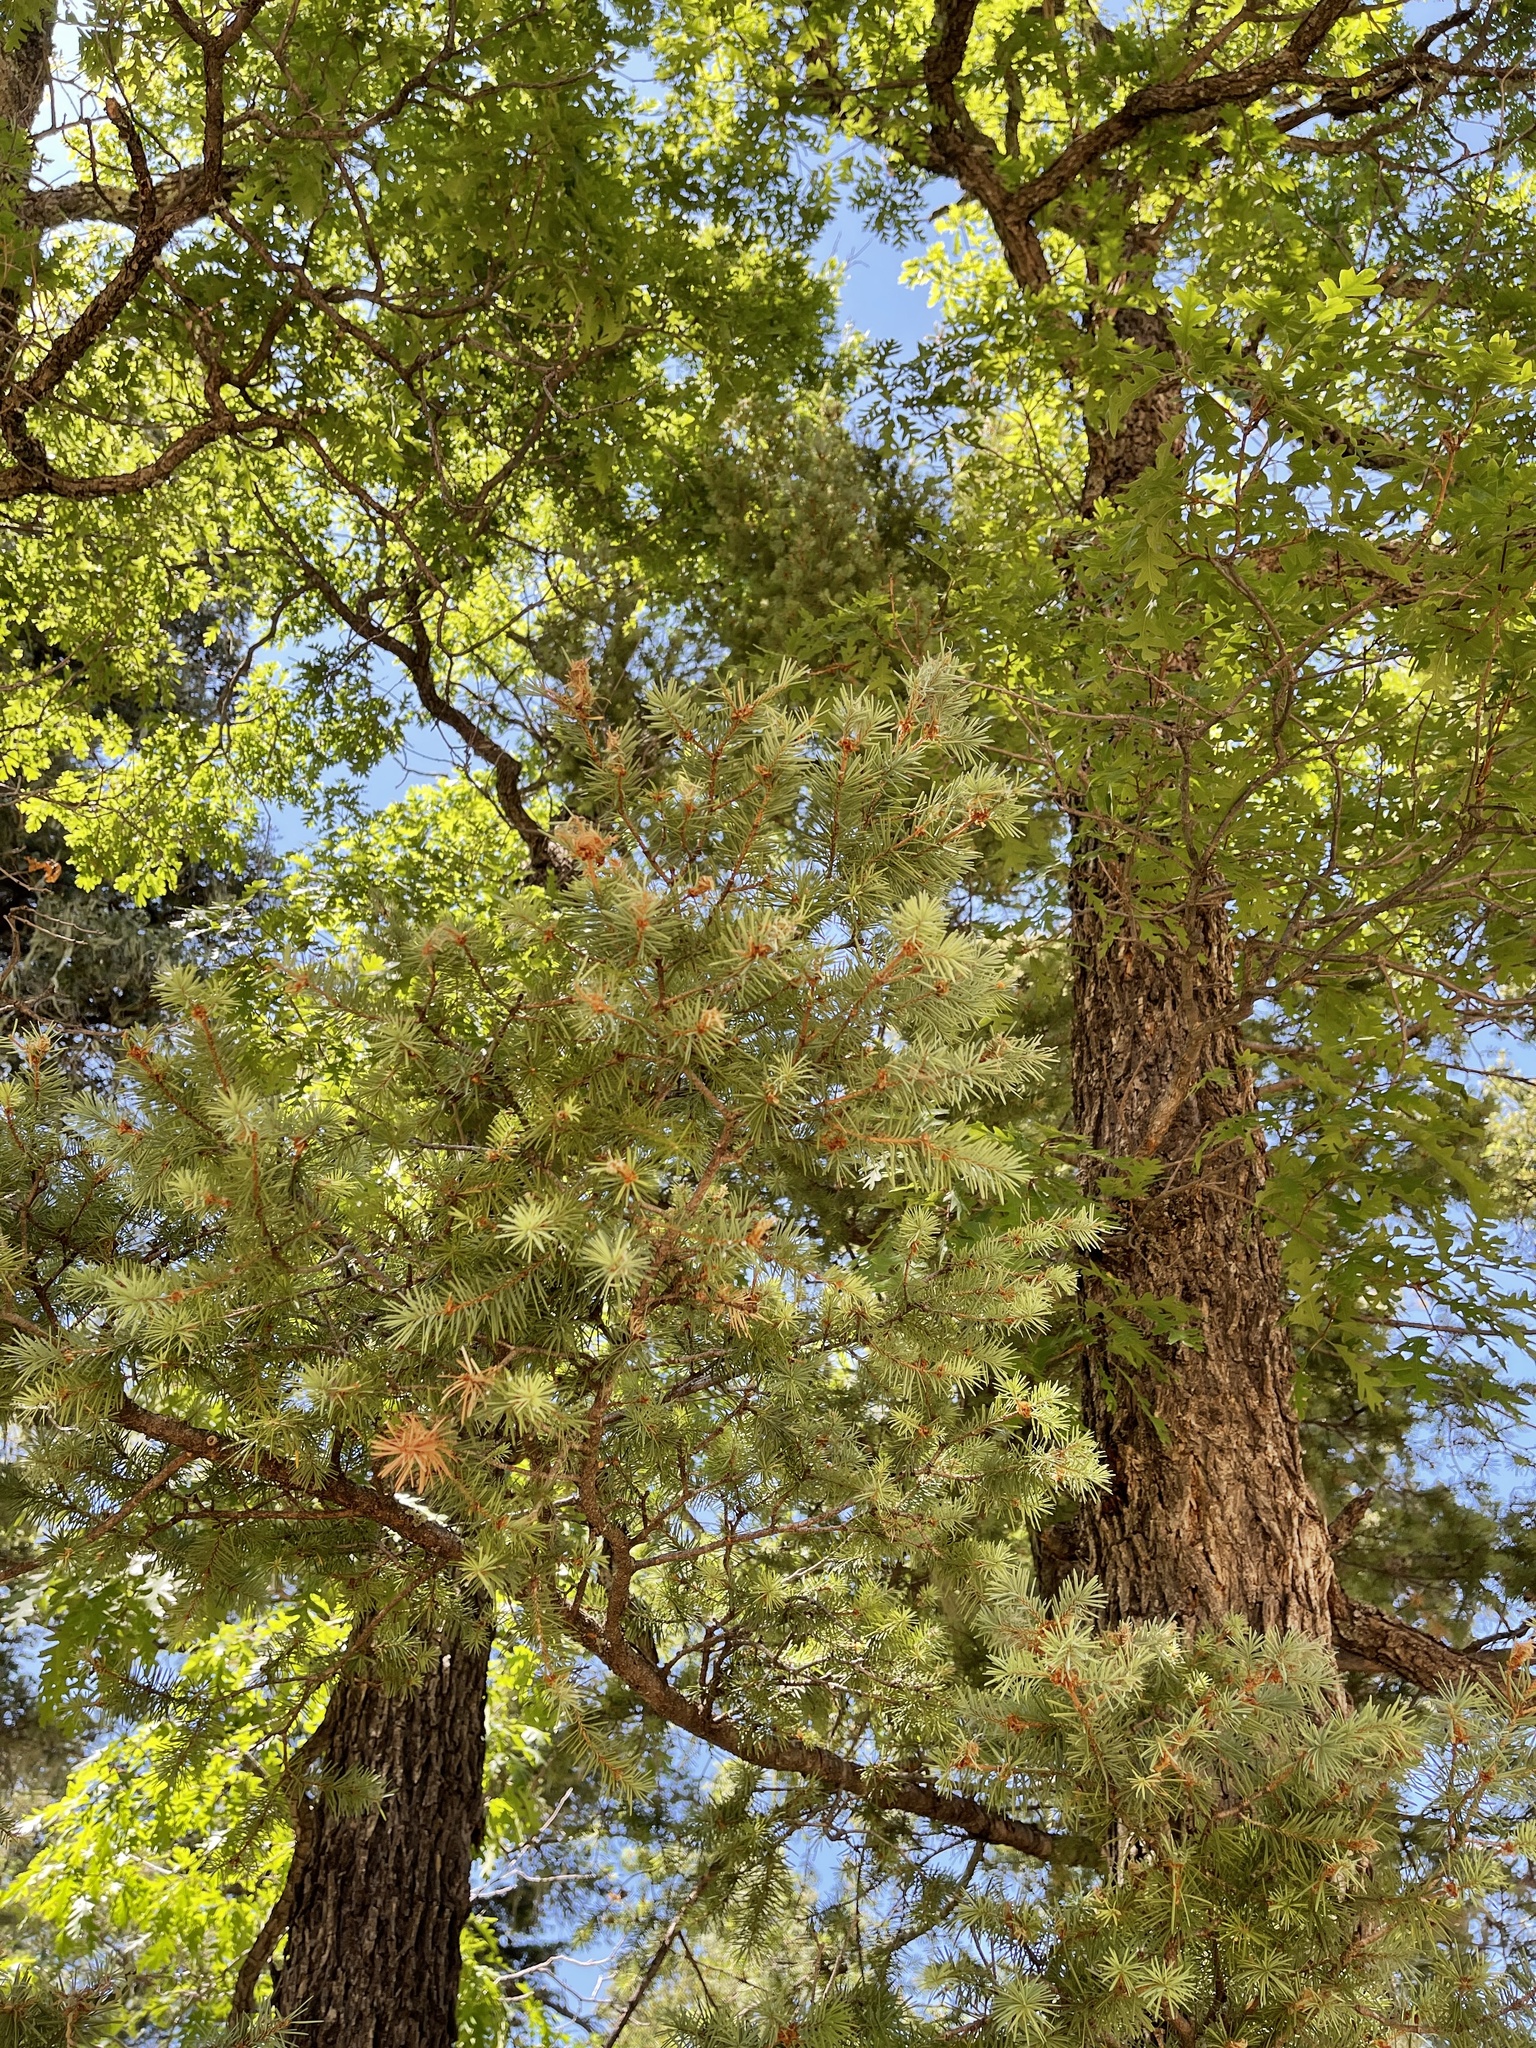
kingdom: Plantae
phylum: Tracheophyta
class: Pinopsida
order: Pinales
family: Pinaceae
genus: Pseudotsuga
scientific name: Pseudotsuga menziesii
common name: Douglas fir
